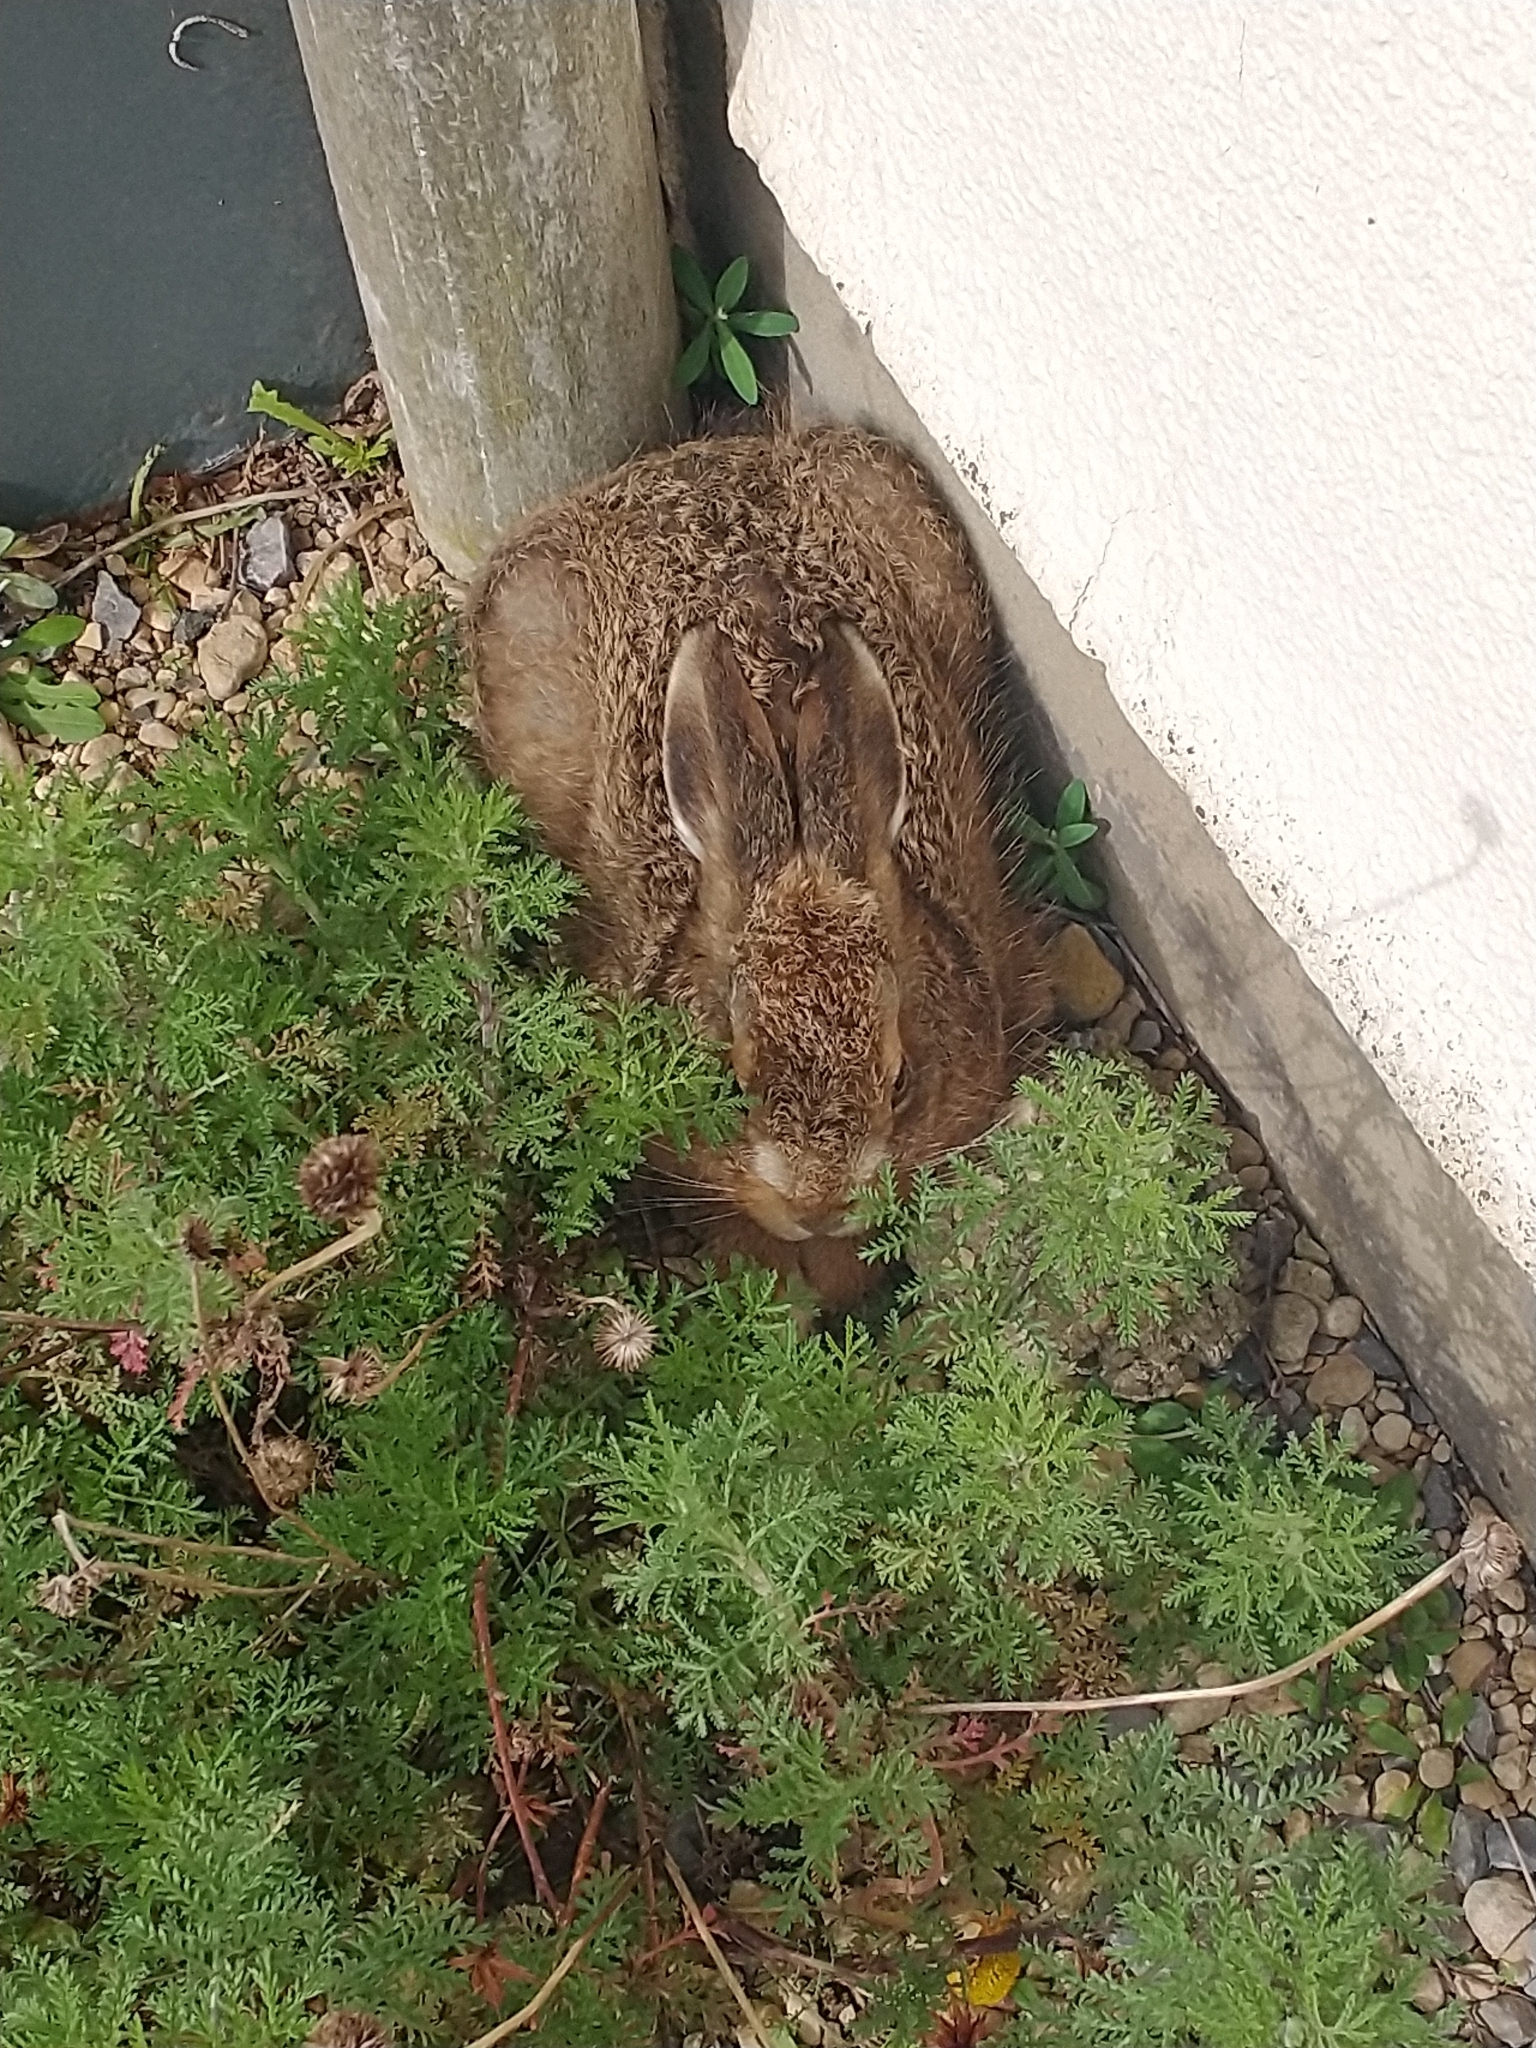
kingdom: Animalia
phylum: Chordata
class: Mammalia
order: Lagomorpha
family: Leporidae
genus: Lepus
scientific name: Lepus europaeus
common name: European hare
